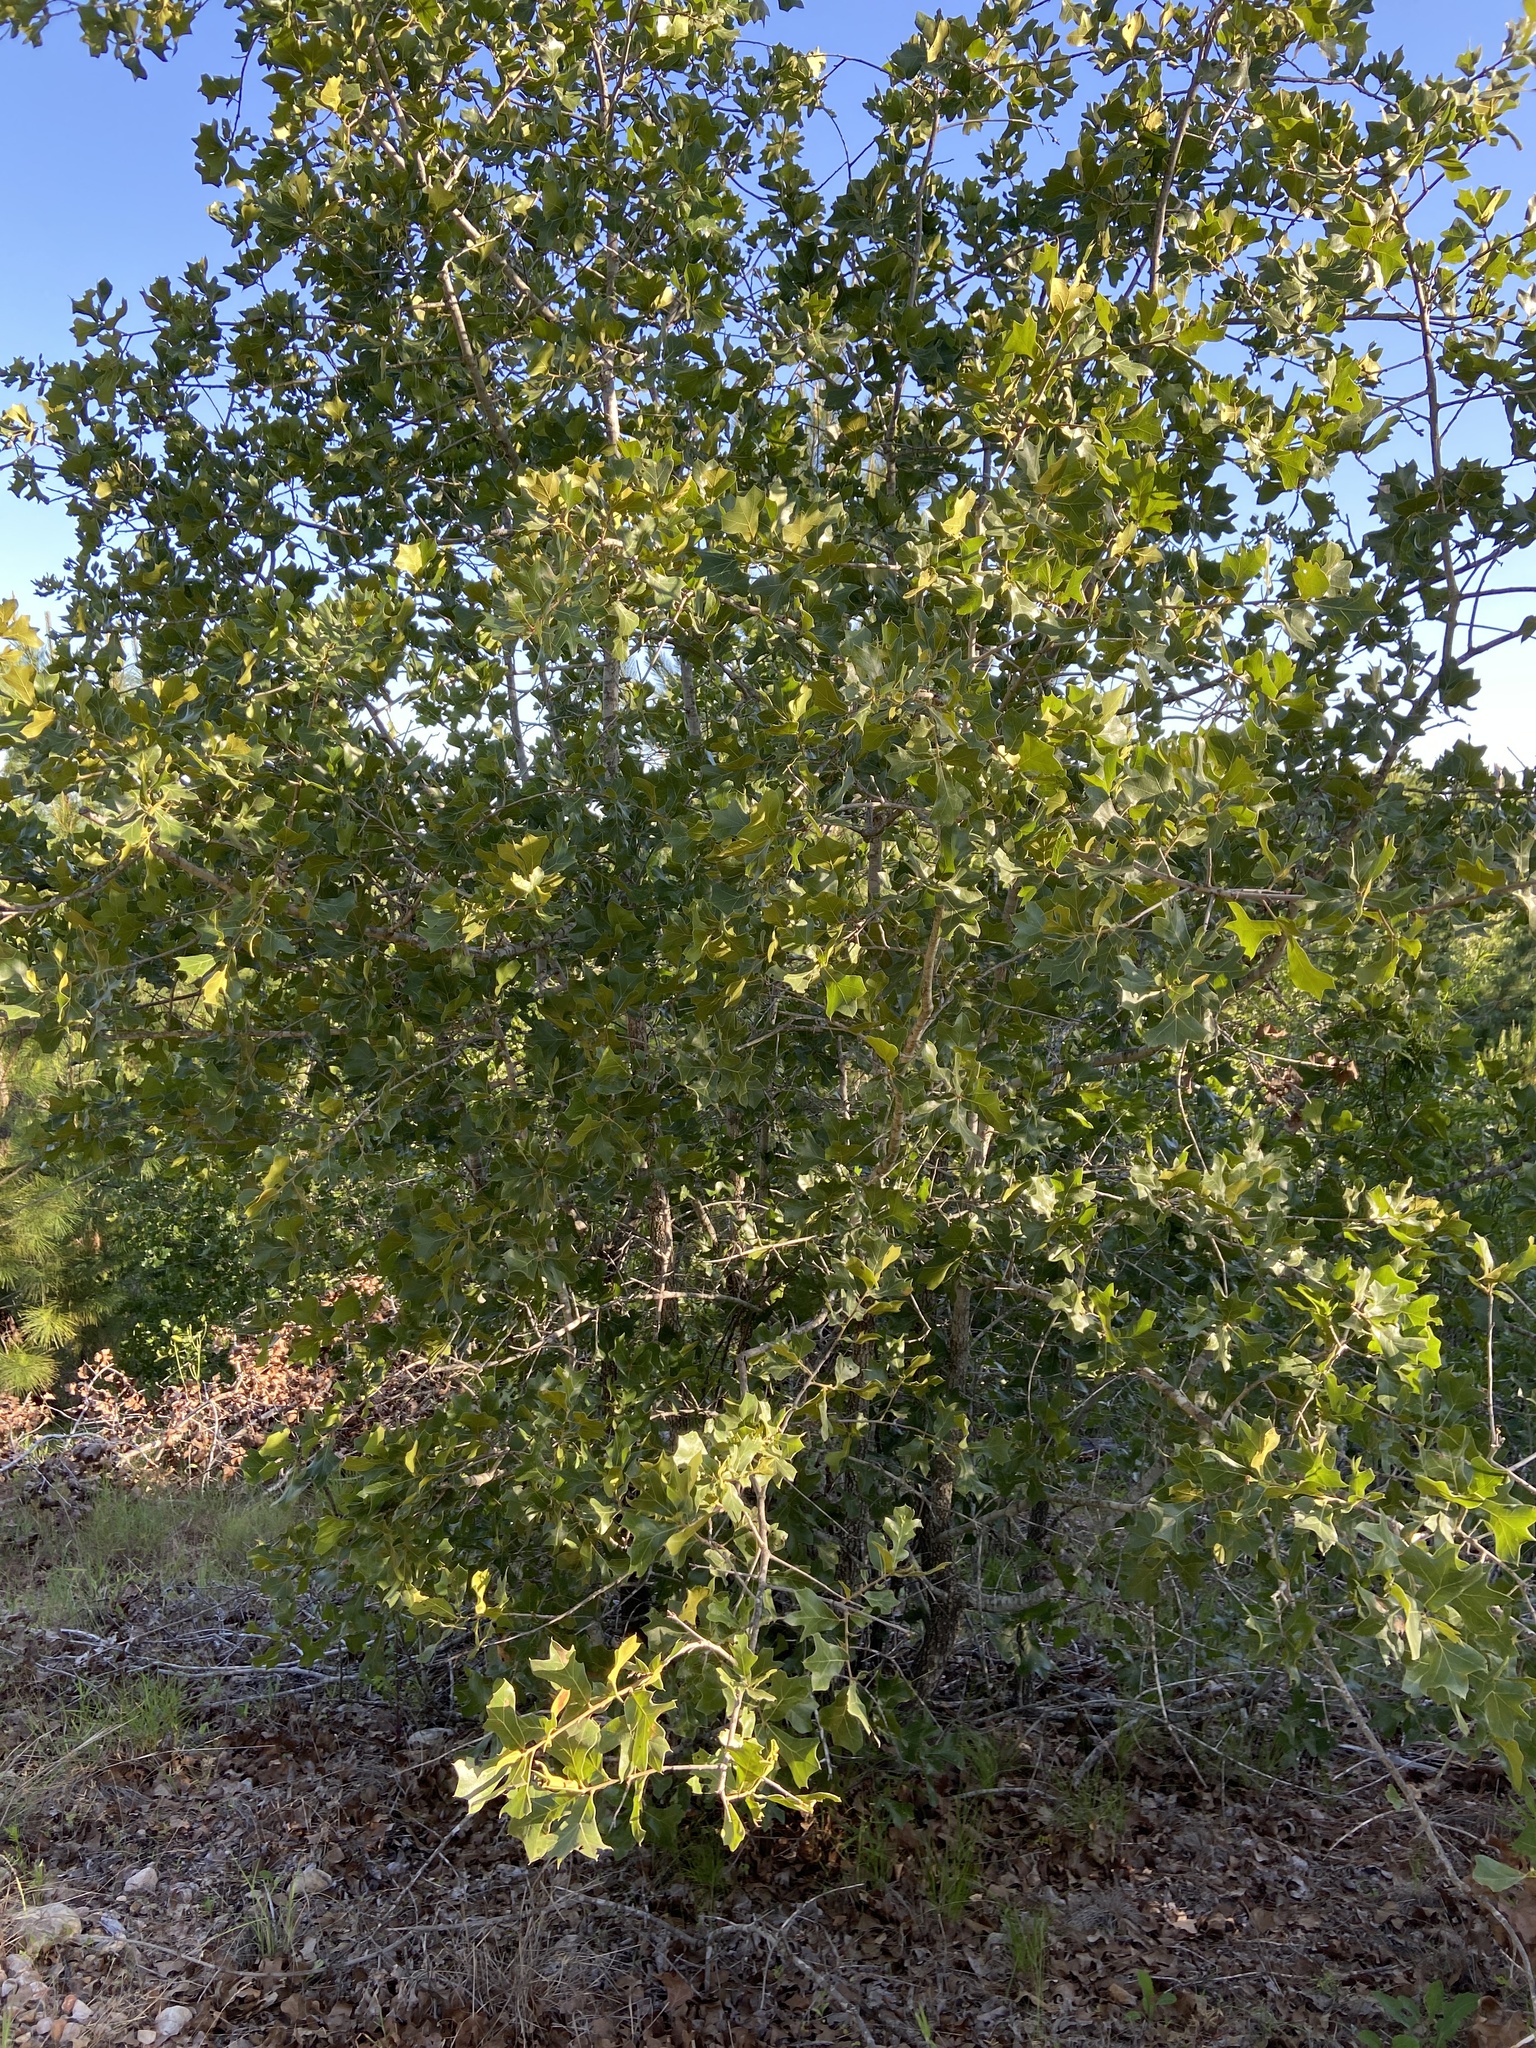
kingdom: Plantae
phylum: Tracheophyta
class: Magnoliopsida
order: Fagales
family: Fagaceae
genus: Quercus
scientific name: Quercus marilandica
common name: Blackjack oak
